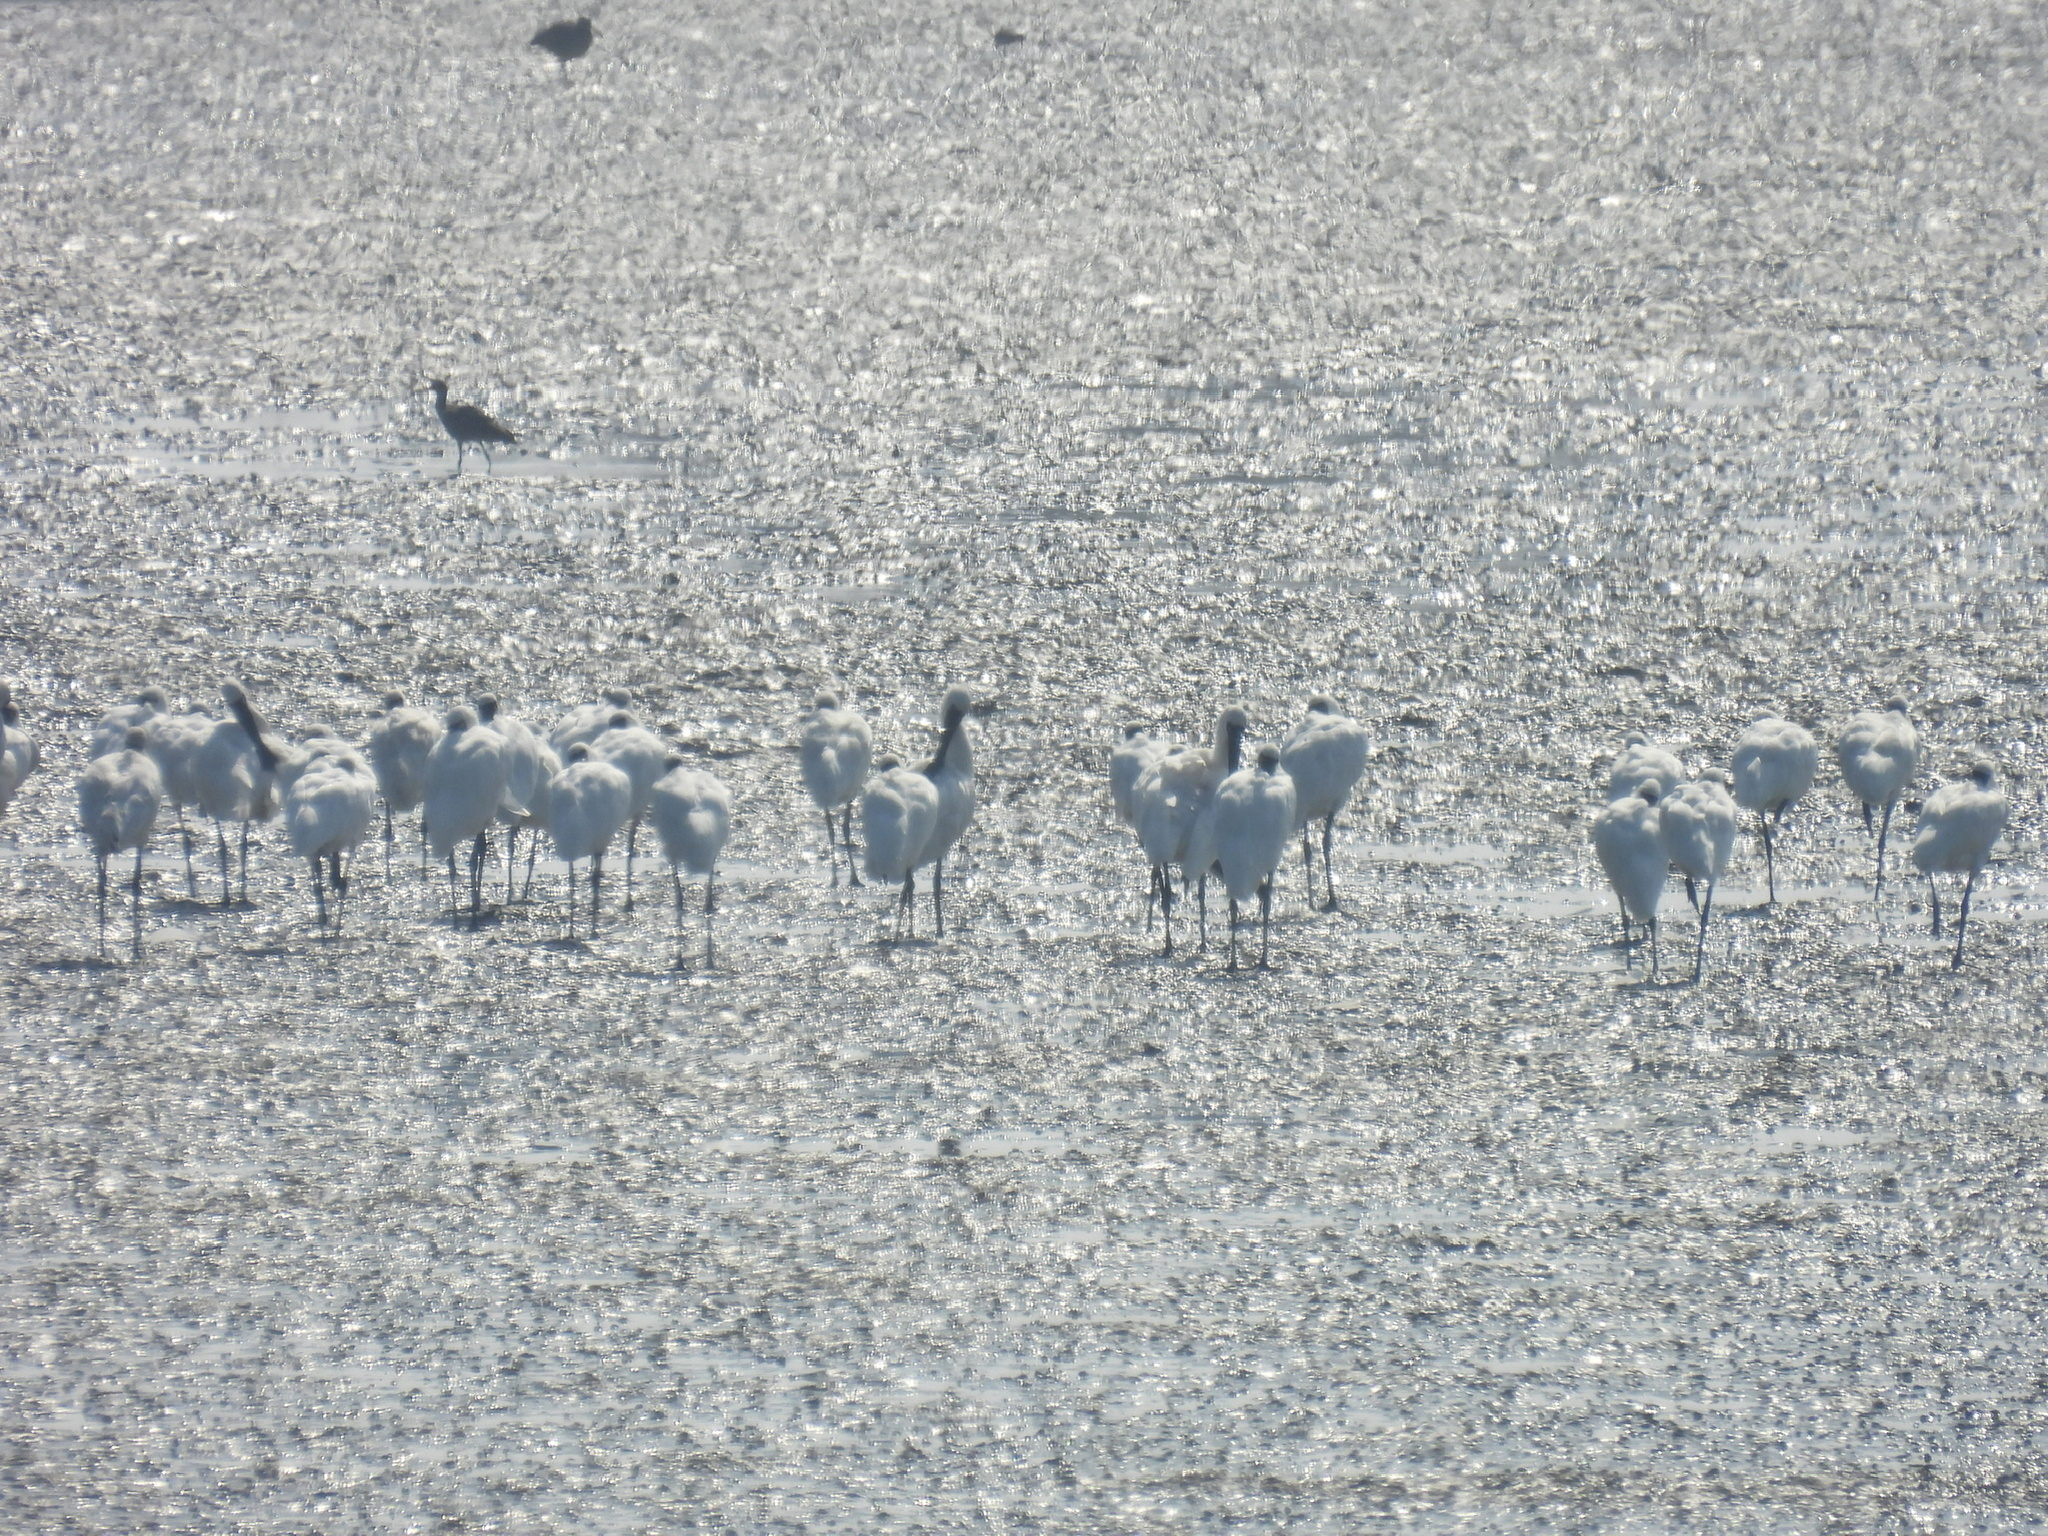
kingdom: Animalia
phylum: Chordata
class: Aves
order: Pelecaniformes
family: Threskiornithidae
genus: Platalea
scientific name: Platalea minor
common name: Black-faced spoonbill
